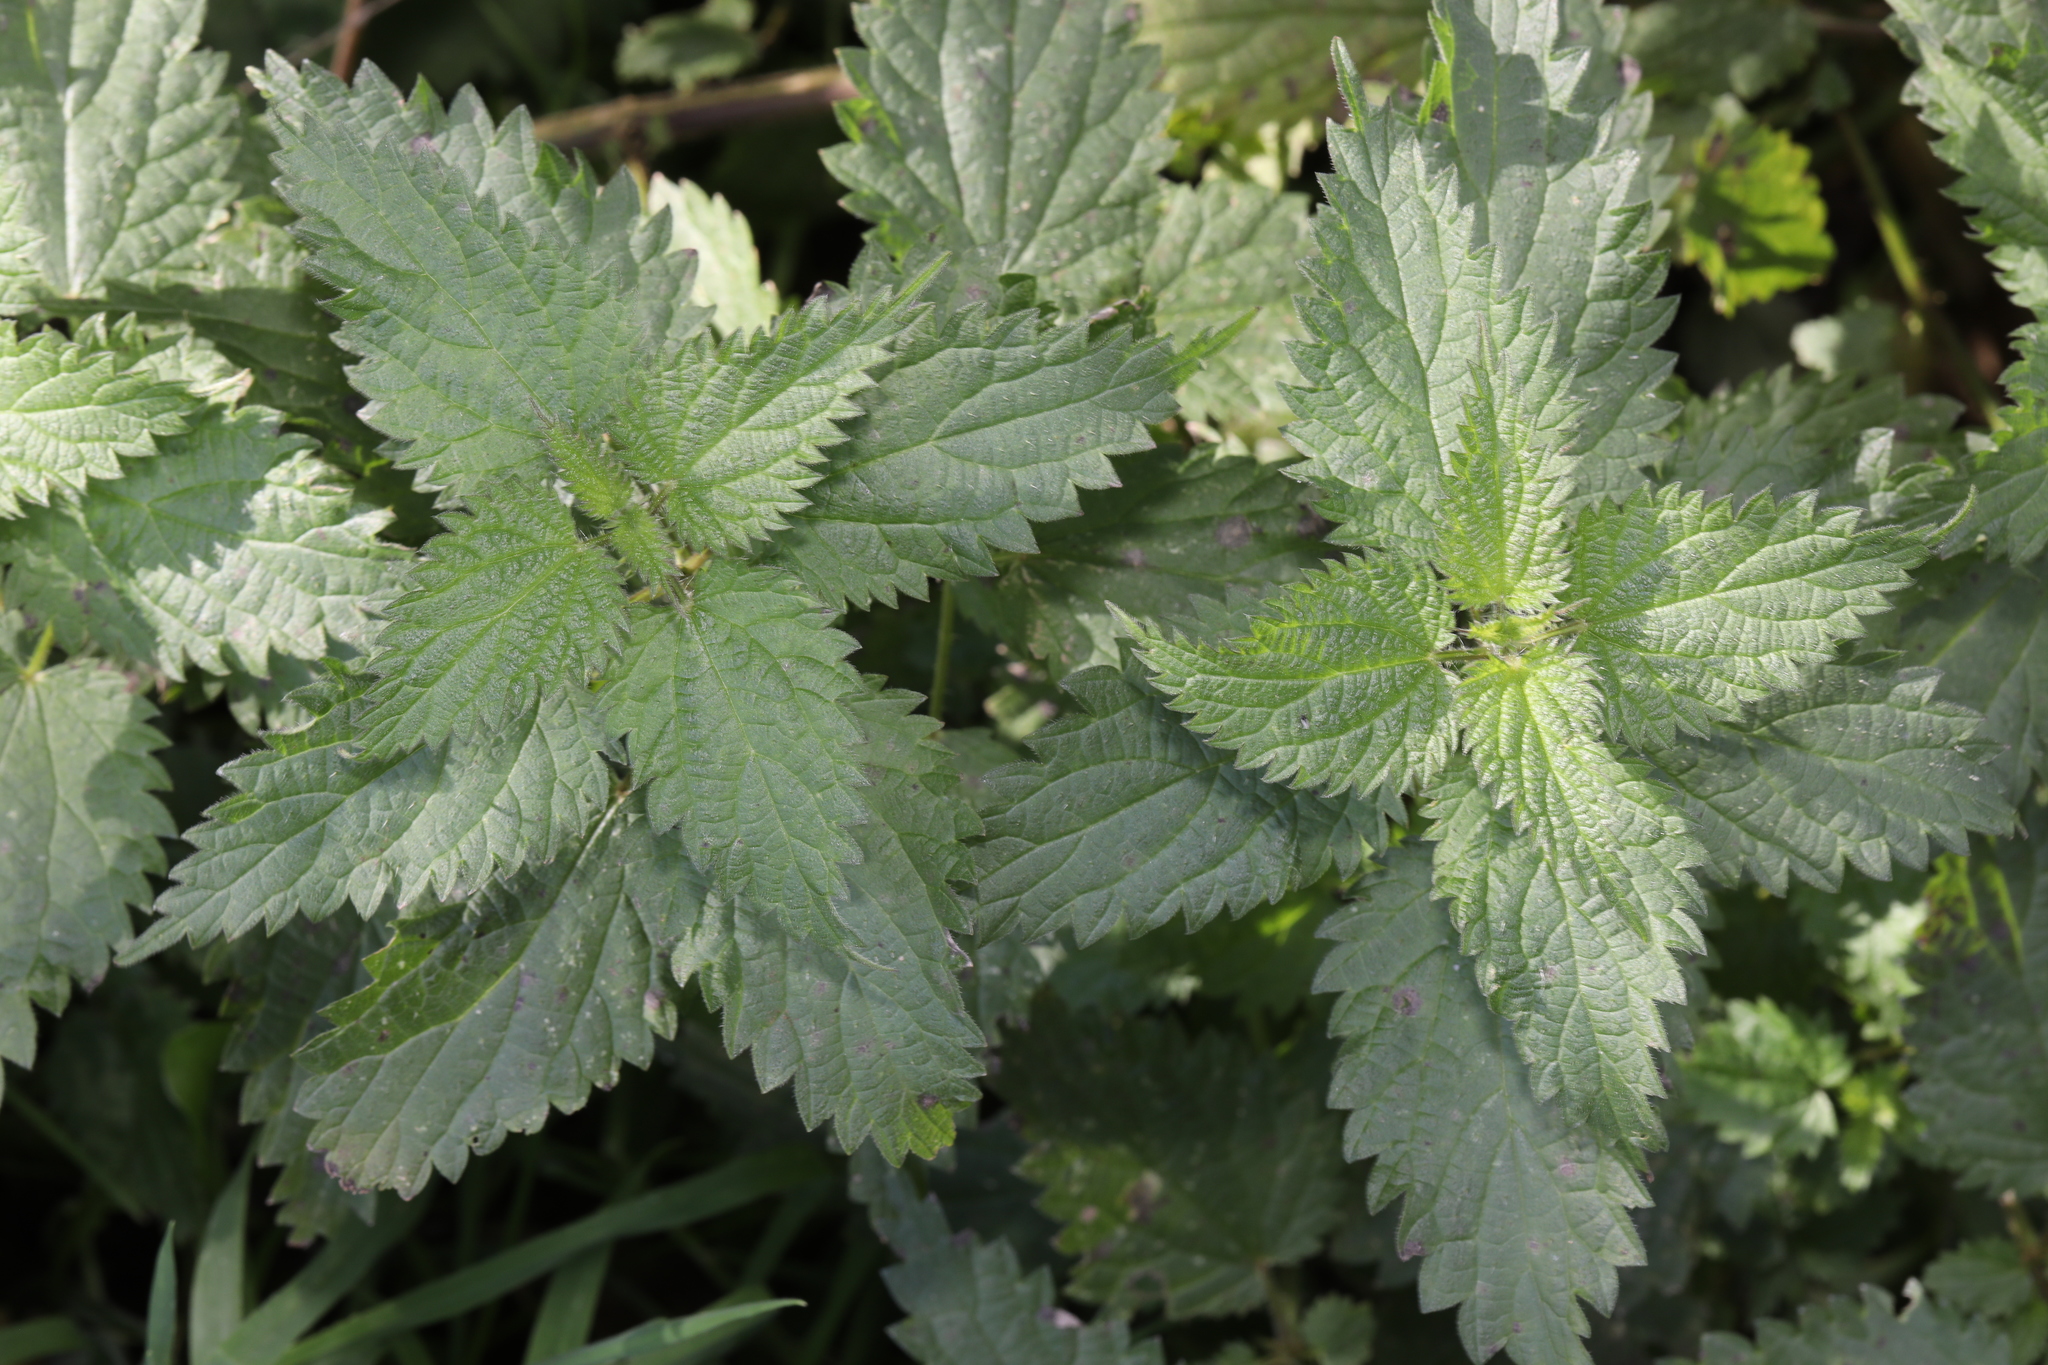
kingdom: Plantae
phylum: Tracheophyta
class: Magnoliopsida
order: Rosales
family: Urticaceae
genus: Urtica
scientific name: Urtica dioica
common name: Common nettle
